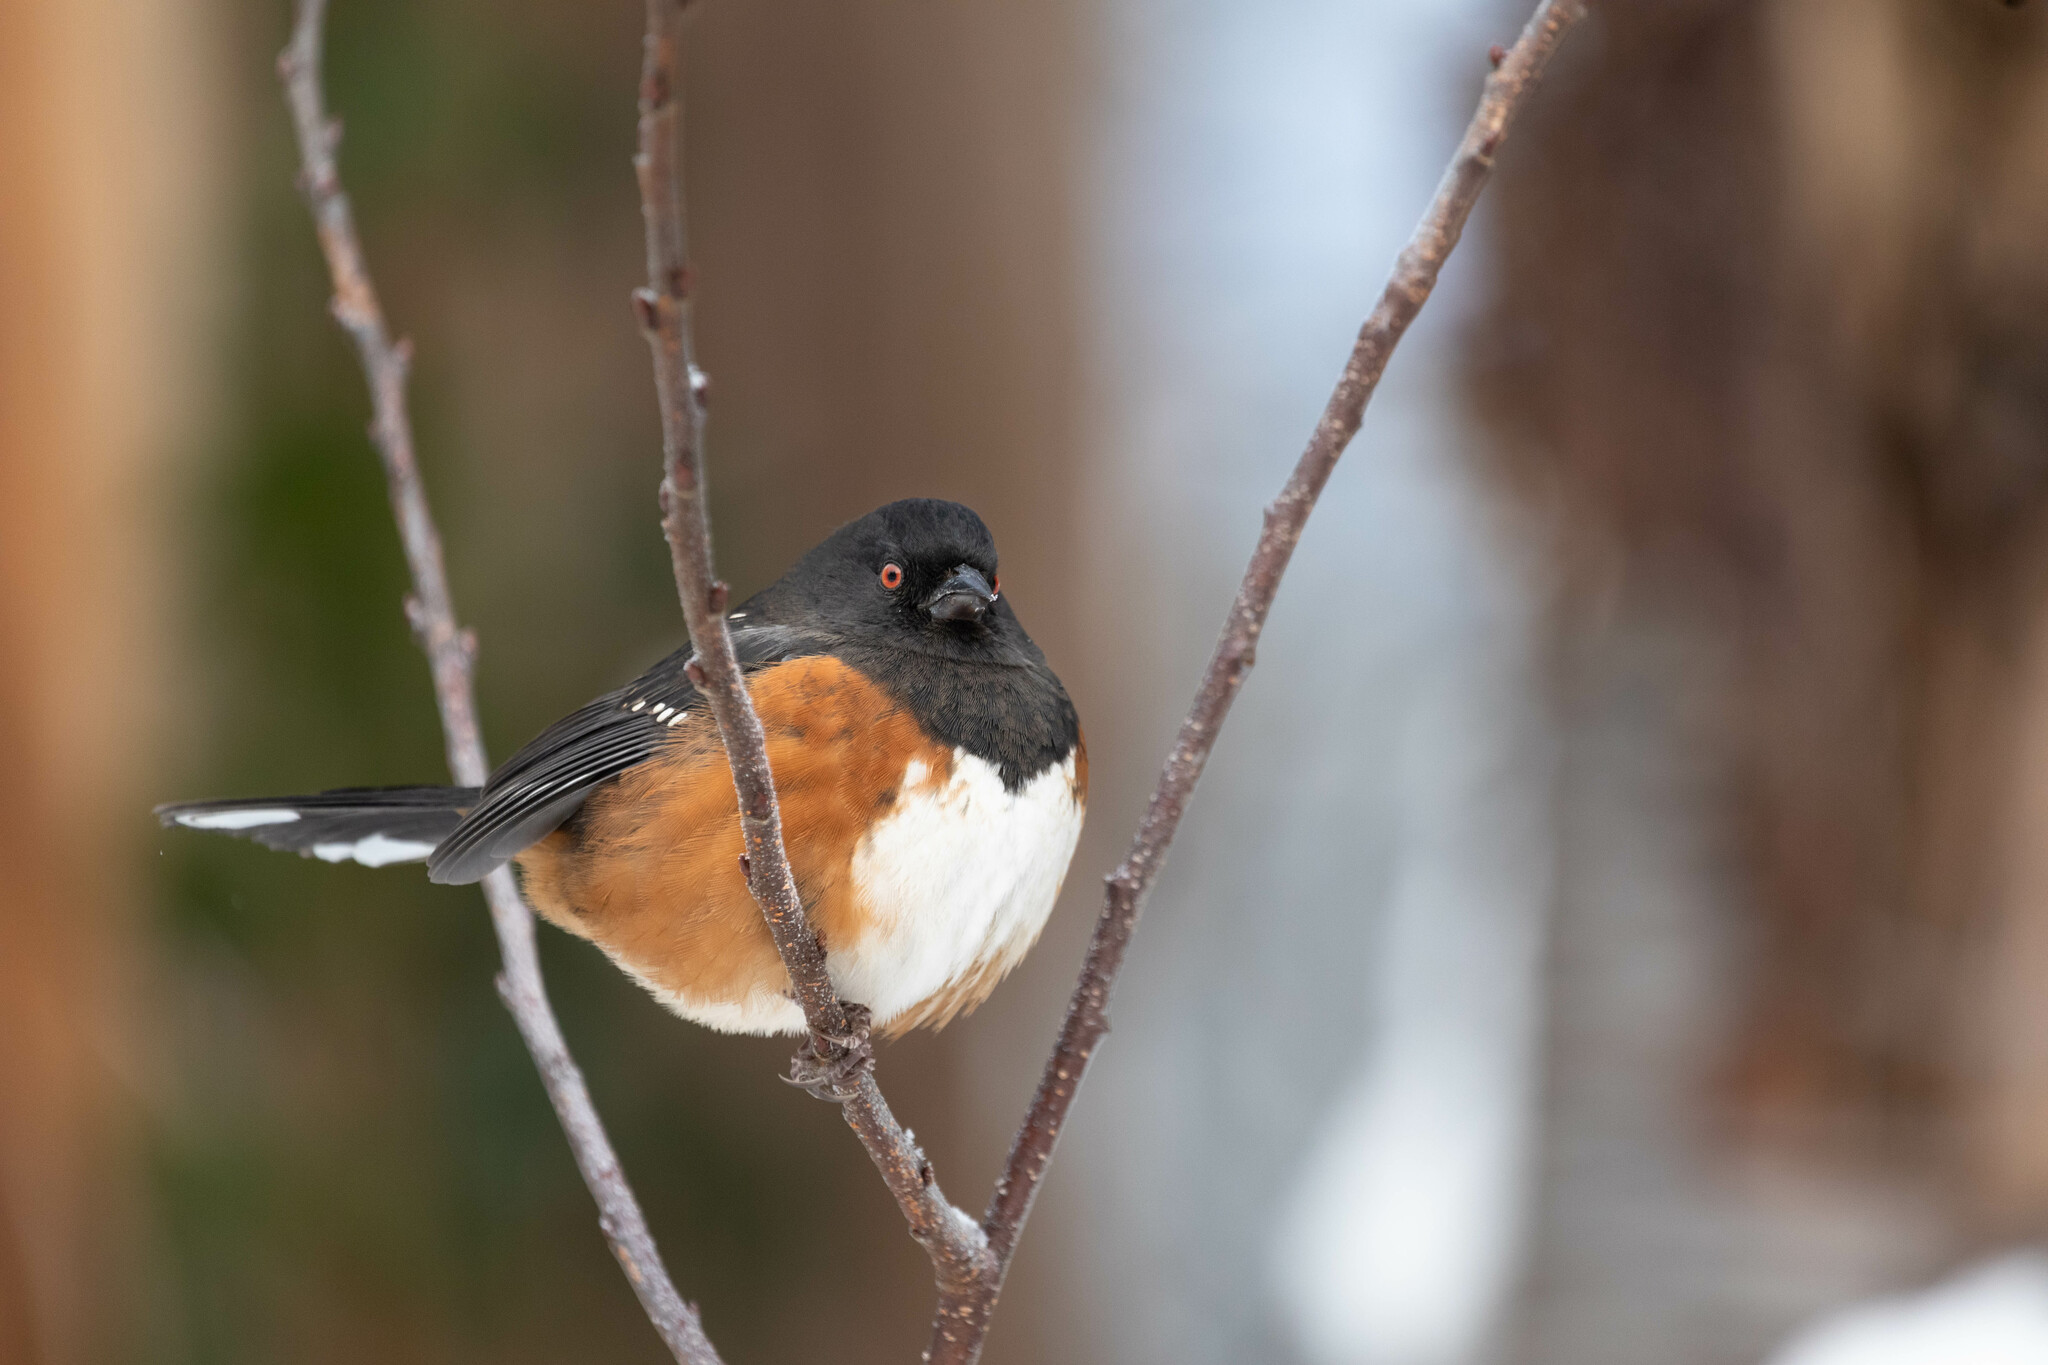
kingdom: Animalia
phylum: Chordata
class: Aves
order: Passeriformes
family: Passerellidae
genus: Pipilo
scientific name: Pipilo maculatus
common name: Spotted towhee
